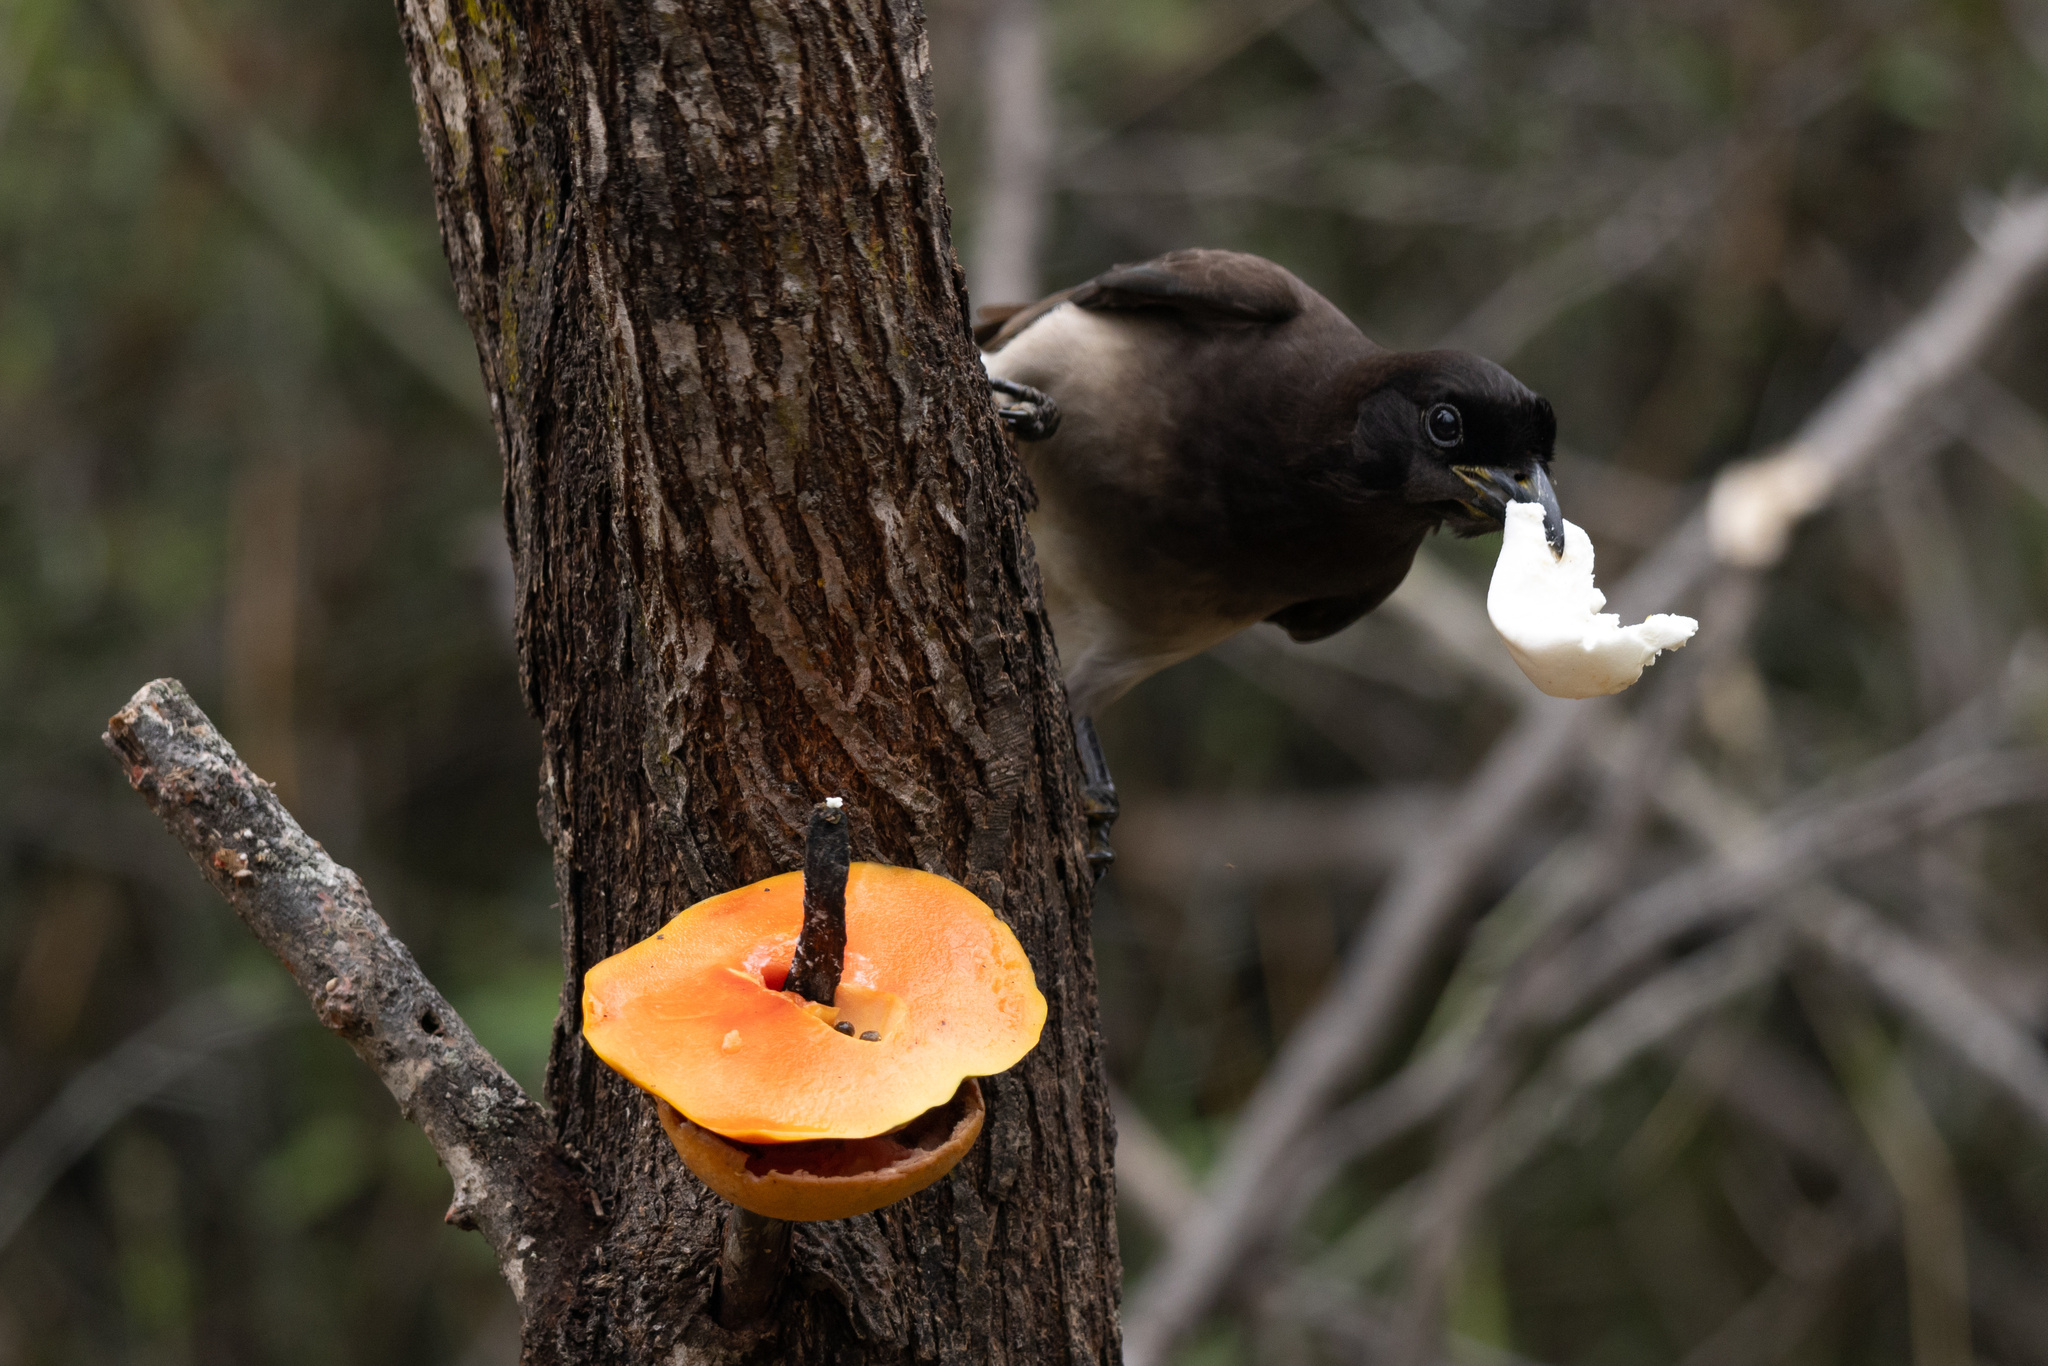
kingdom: Animalia
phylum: Chordata
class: Aves
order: Passeriformes
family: Corvidae
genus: Psilorhinus
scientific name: Psilorhinus morio
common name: Brown jay
